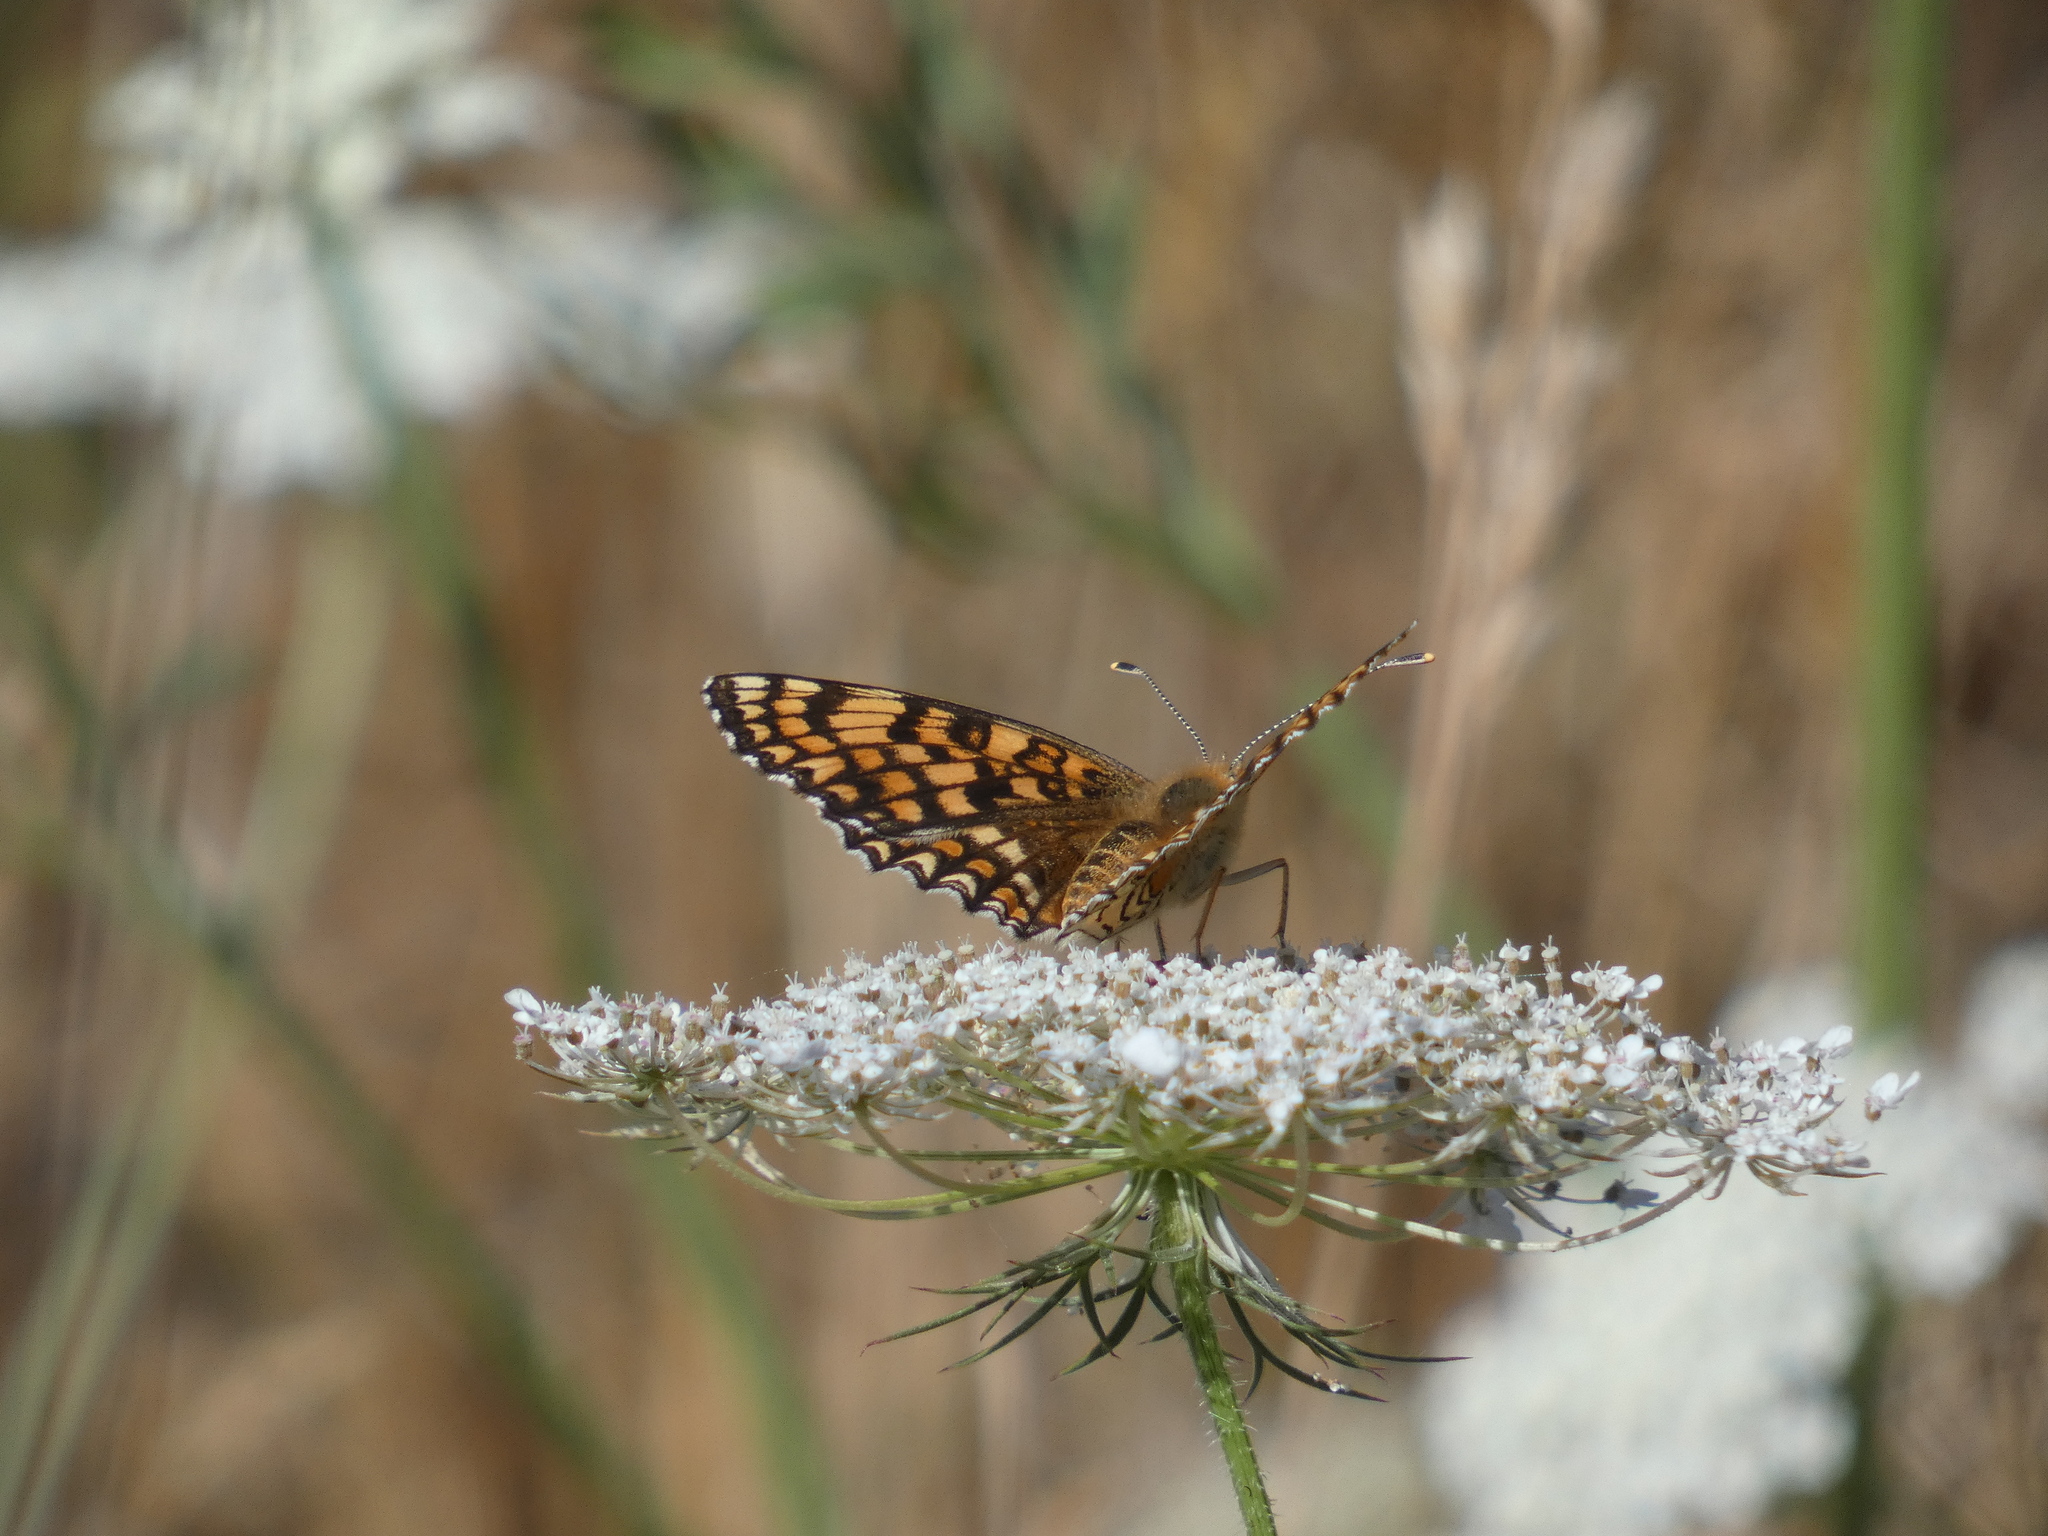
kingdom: Animalia
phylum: Arthropoda
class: Insecta
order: Lepidoptera
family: Nymphalidae
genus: Melitaea
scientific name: Melitaea phoebe
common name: Knapweed fritillary
